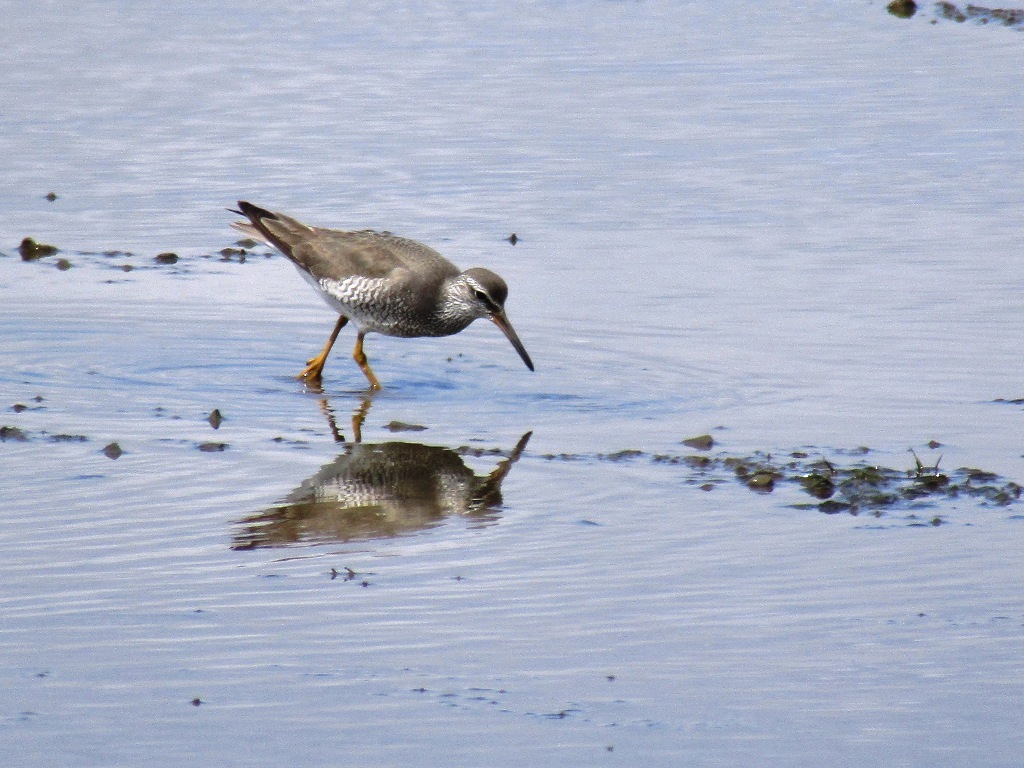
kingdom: Animalia
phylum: Chordata
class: Aves
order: Charadriiformes
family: Scolopacidae
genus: Tringa
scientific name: Tringa brevipes
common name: Grey-tailed tattler
